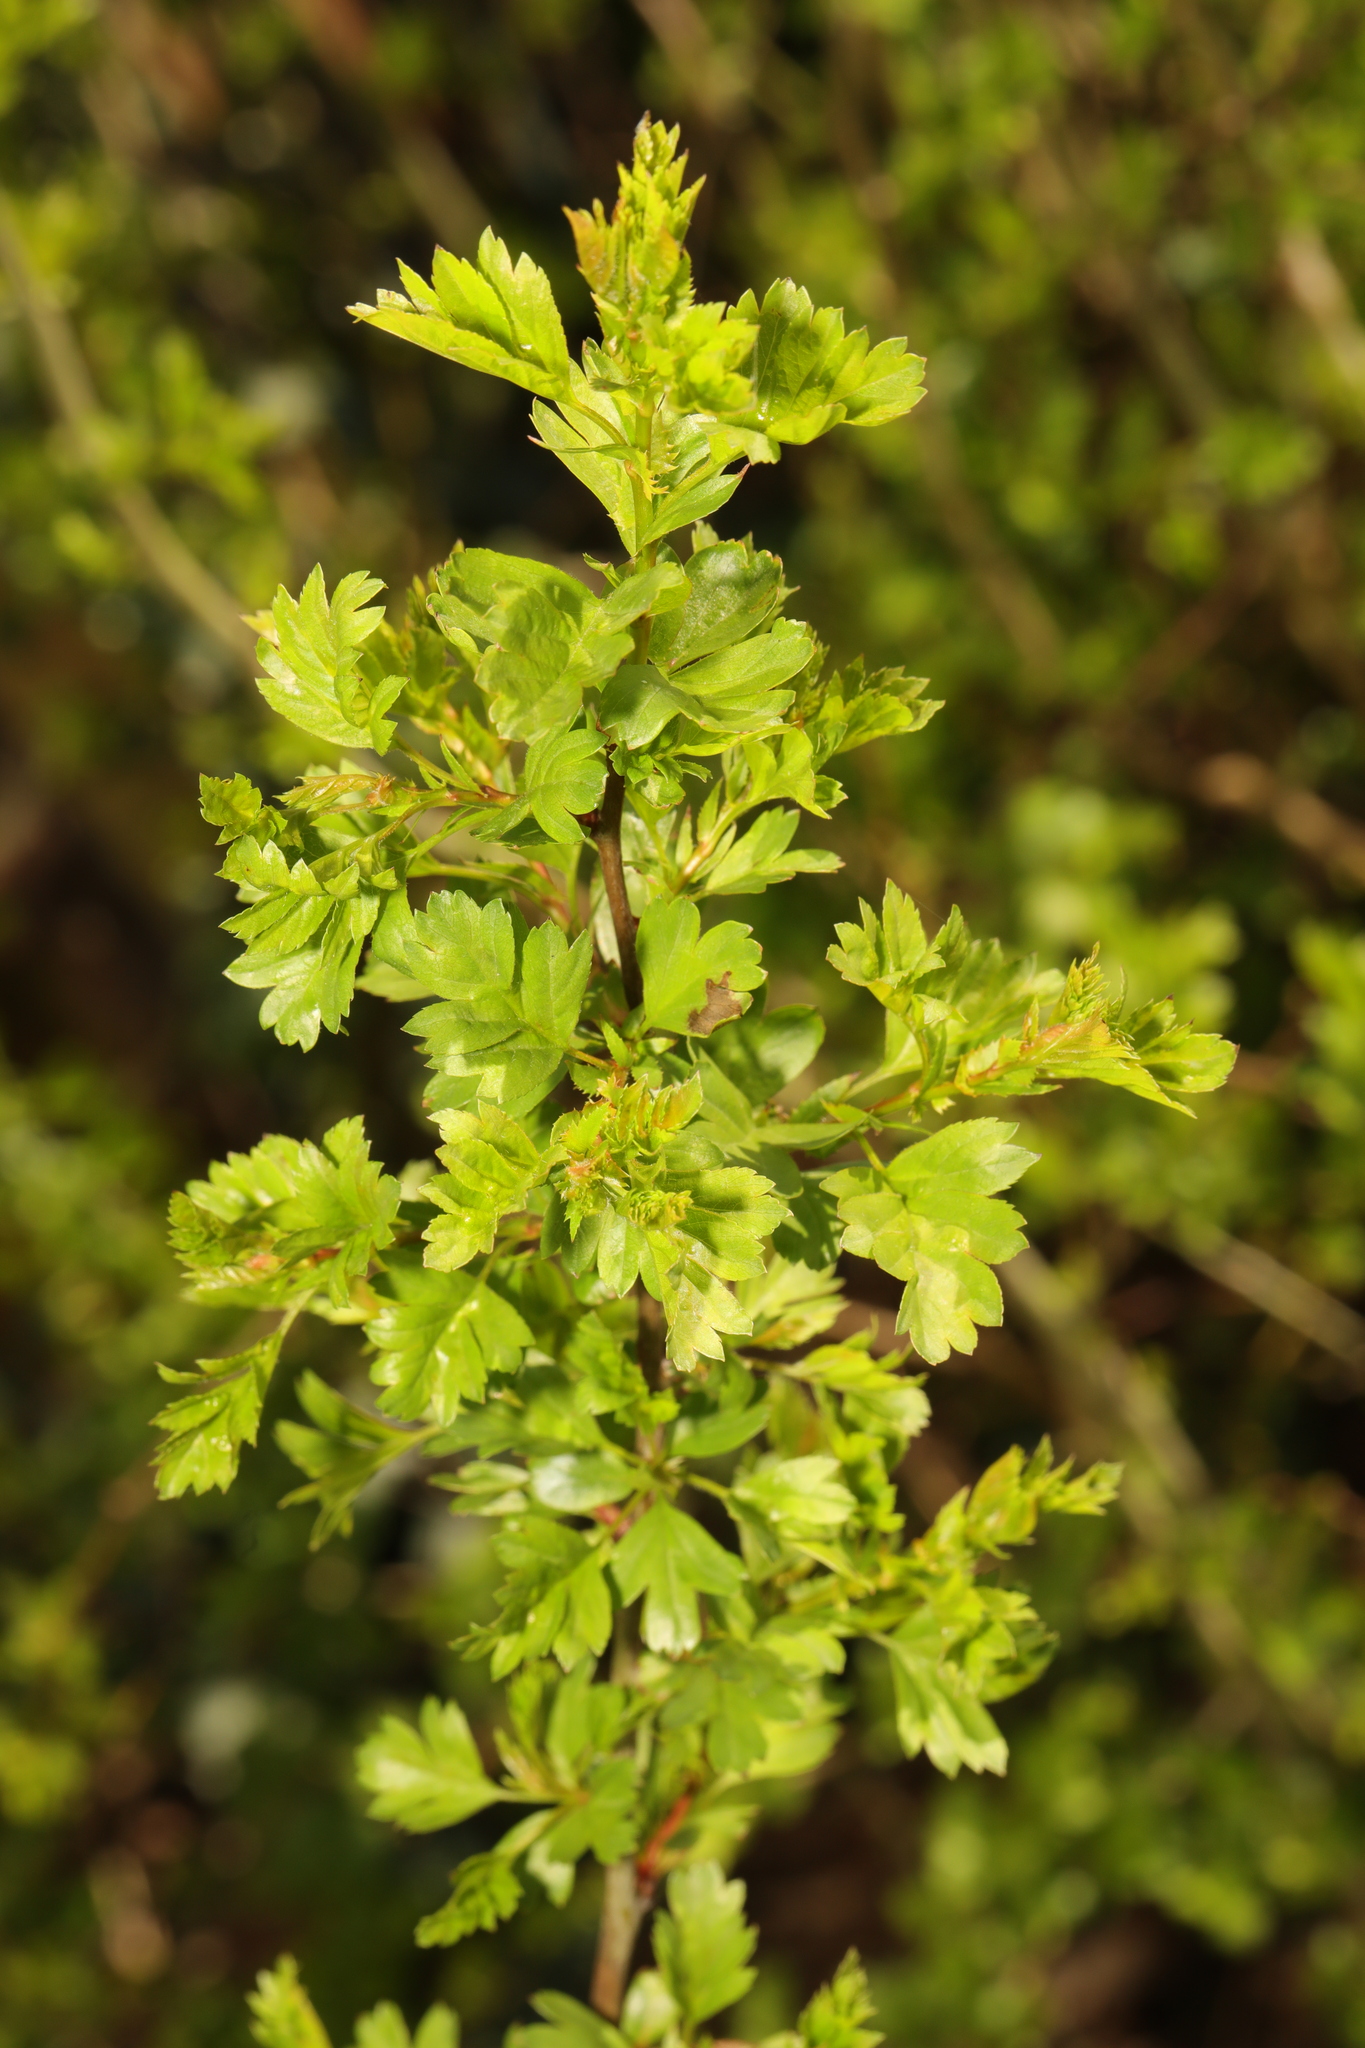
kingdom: Plantae
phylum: Tracheophyta
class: Magnoliopsida
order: Rosales
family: Rosaceae
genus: Crataegus
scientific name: Crataegus monogyna
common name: Hawthorn
